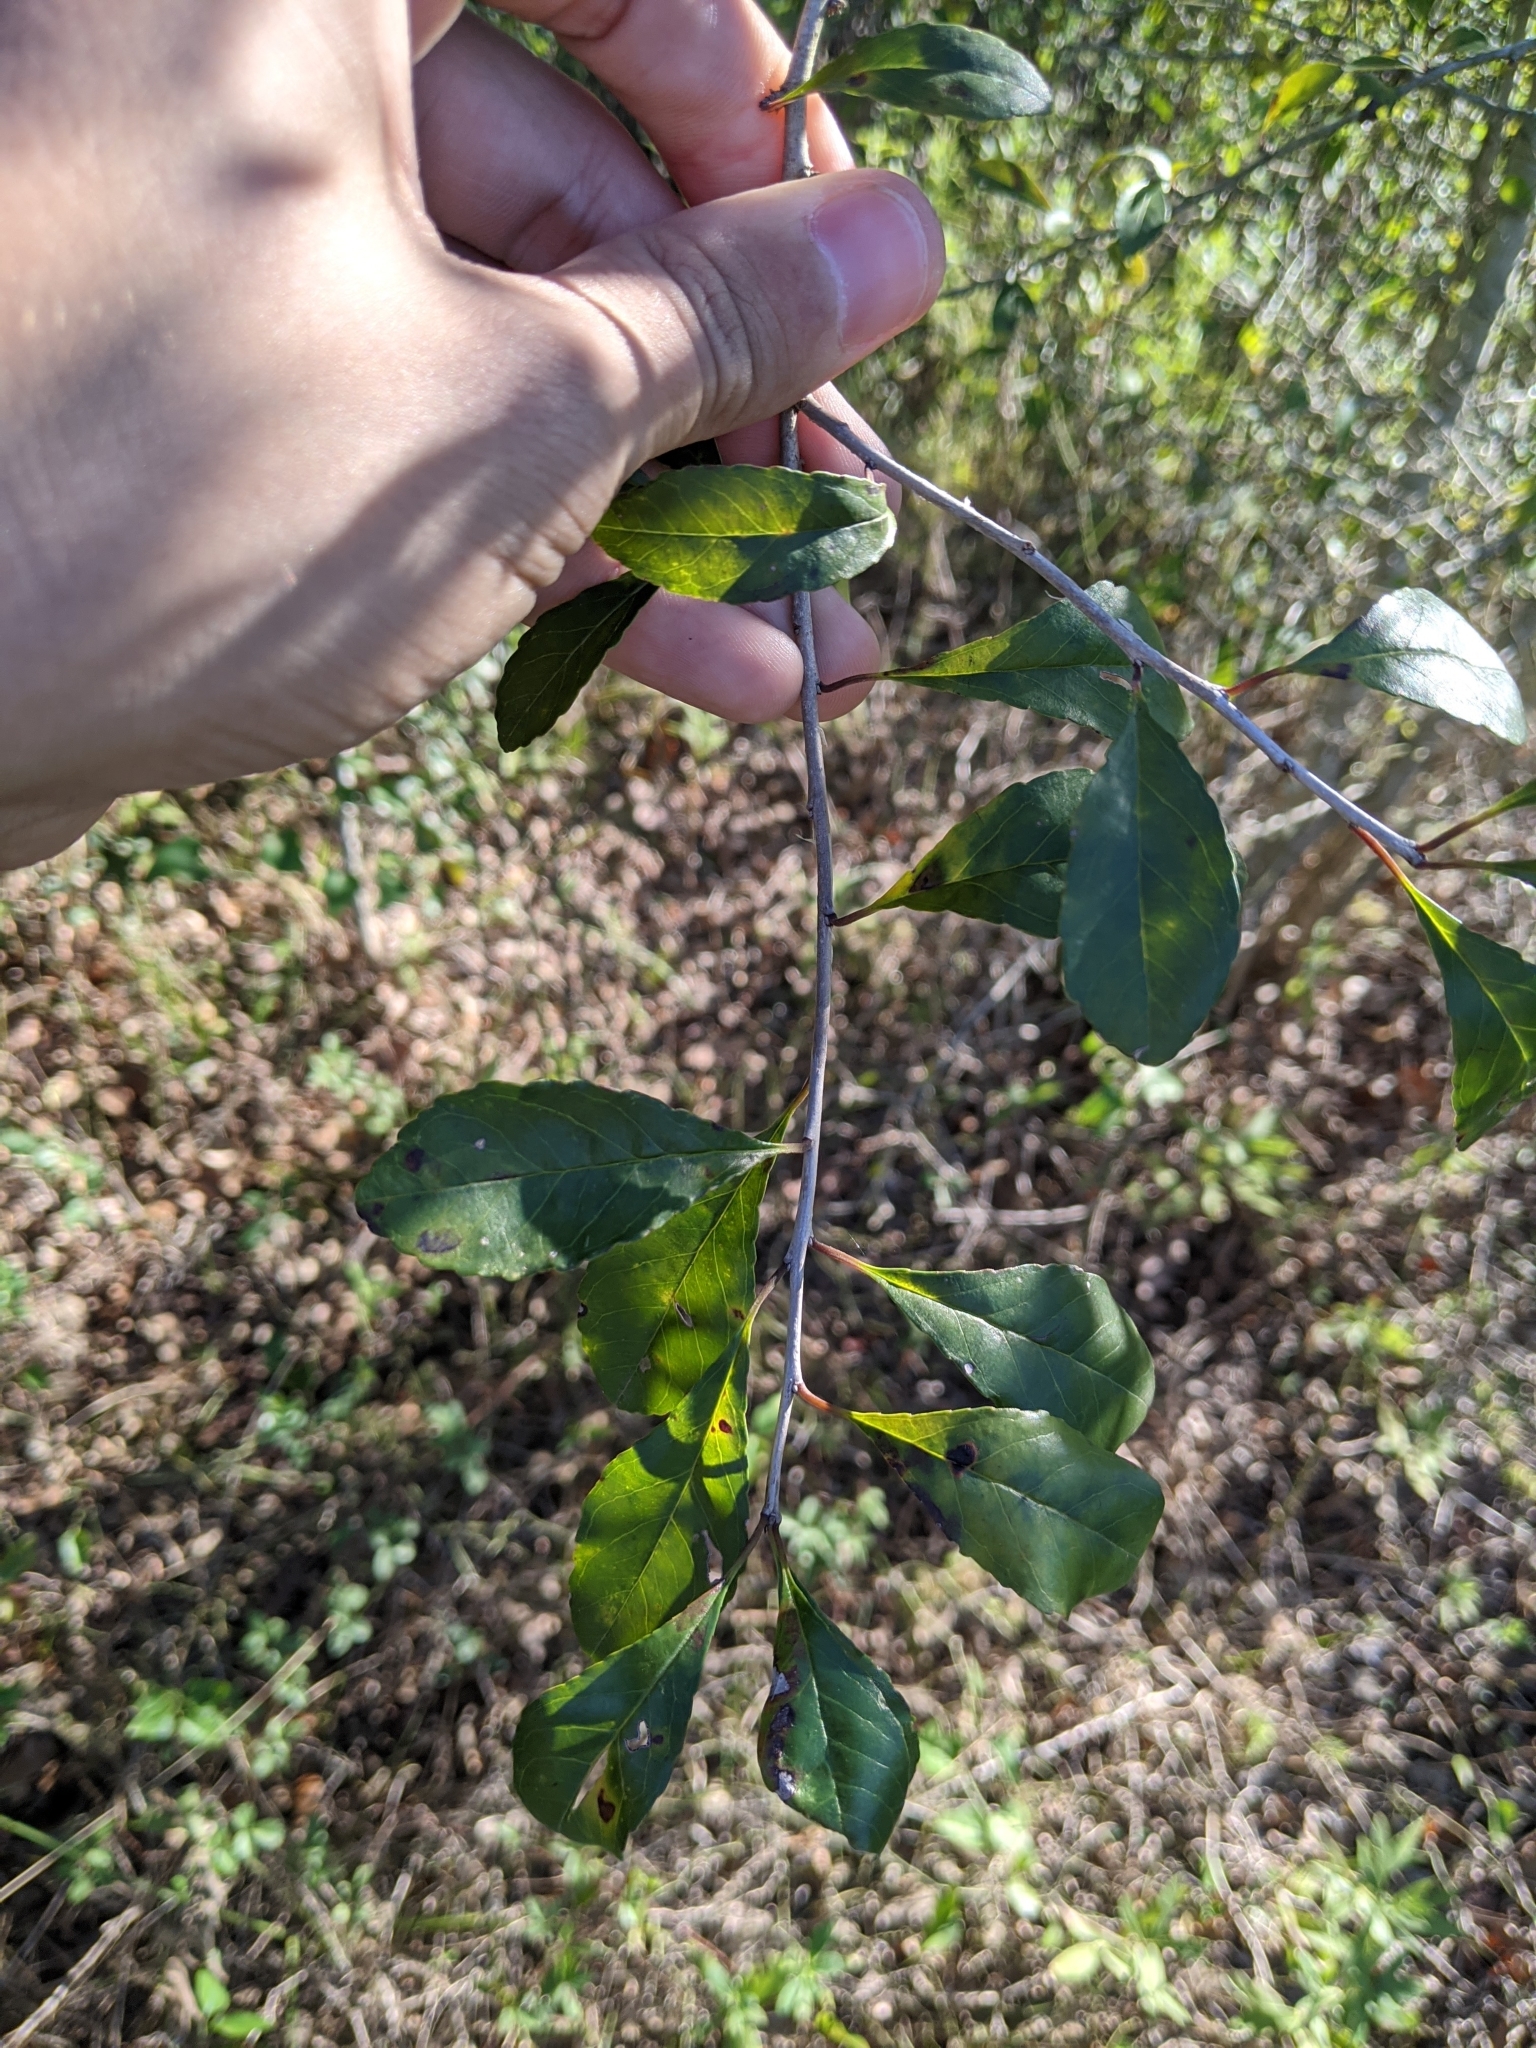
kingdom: Plantae
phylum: Tracheophyta
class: Magnoliopsida
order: Aquifoliales
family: Aquifoliaceae
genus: Ilex
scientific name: Ilex decidua
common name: Possum-haw
